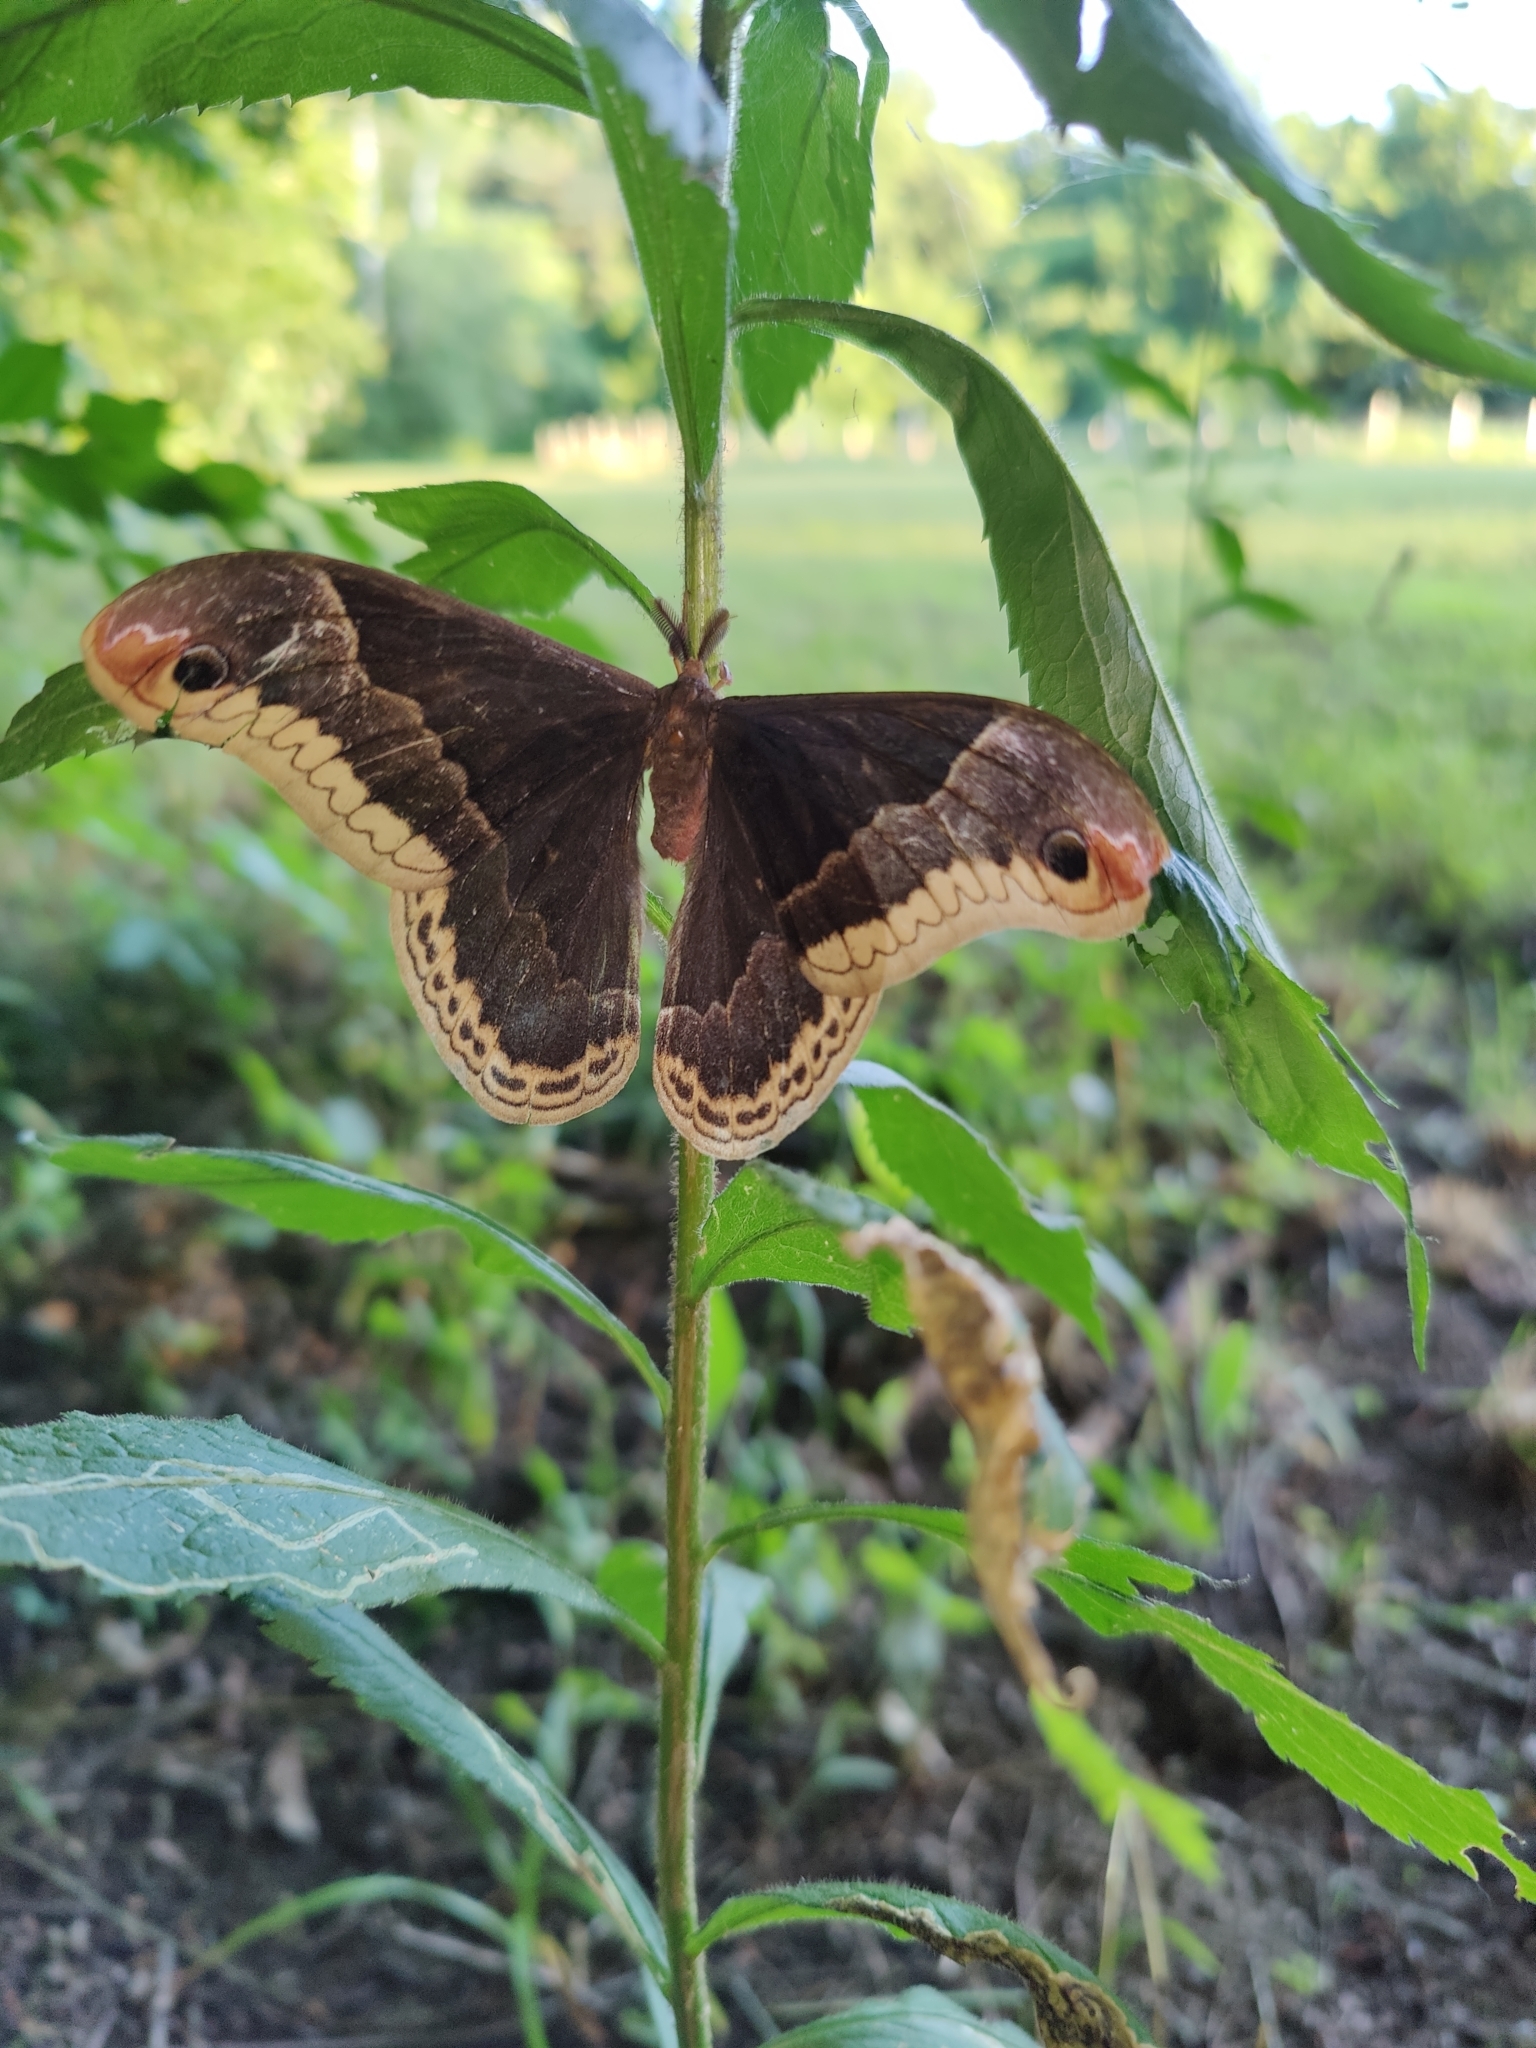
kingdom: Animalia
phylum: Arthropoda
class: Insecta
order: Lepidoptera
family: Saturniidae
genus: Callosamia
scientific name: Callosamia promethea
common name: Promethea silkmoth
